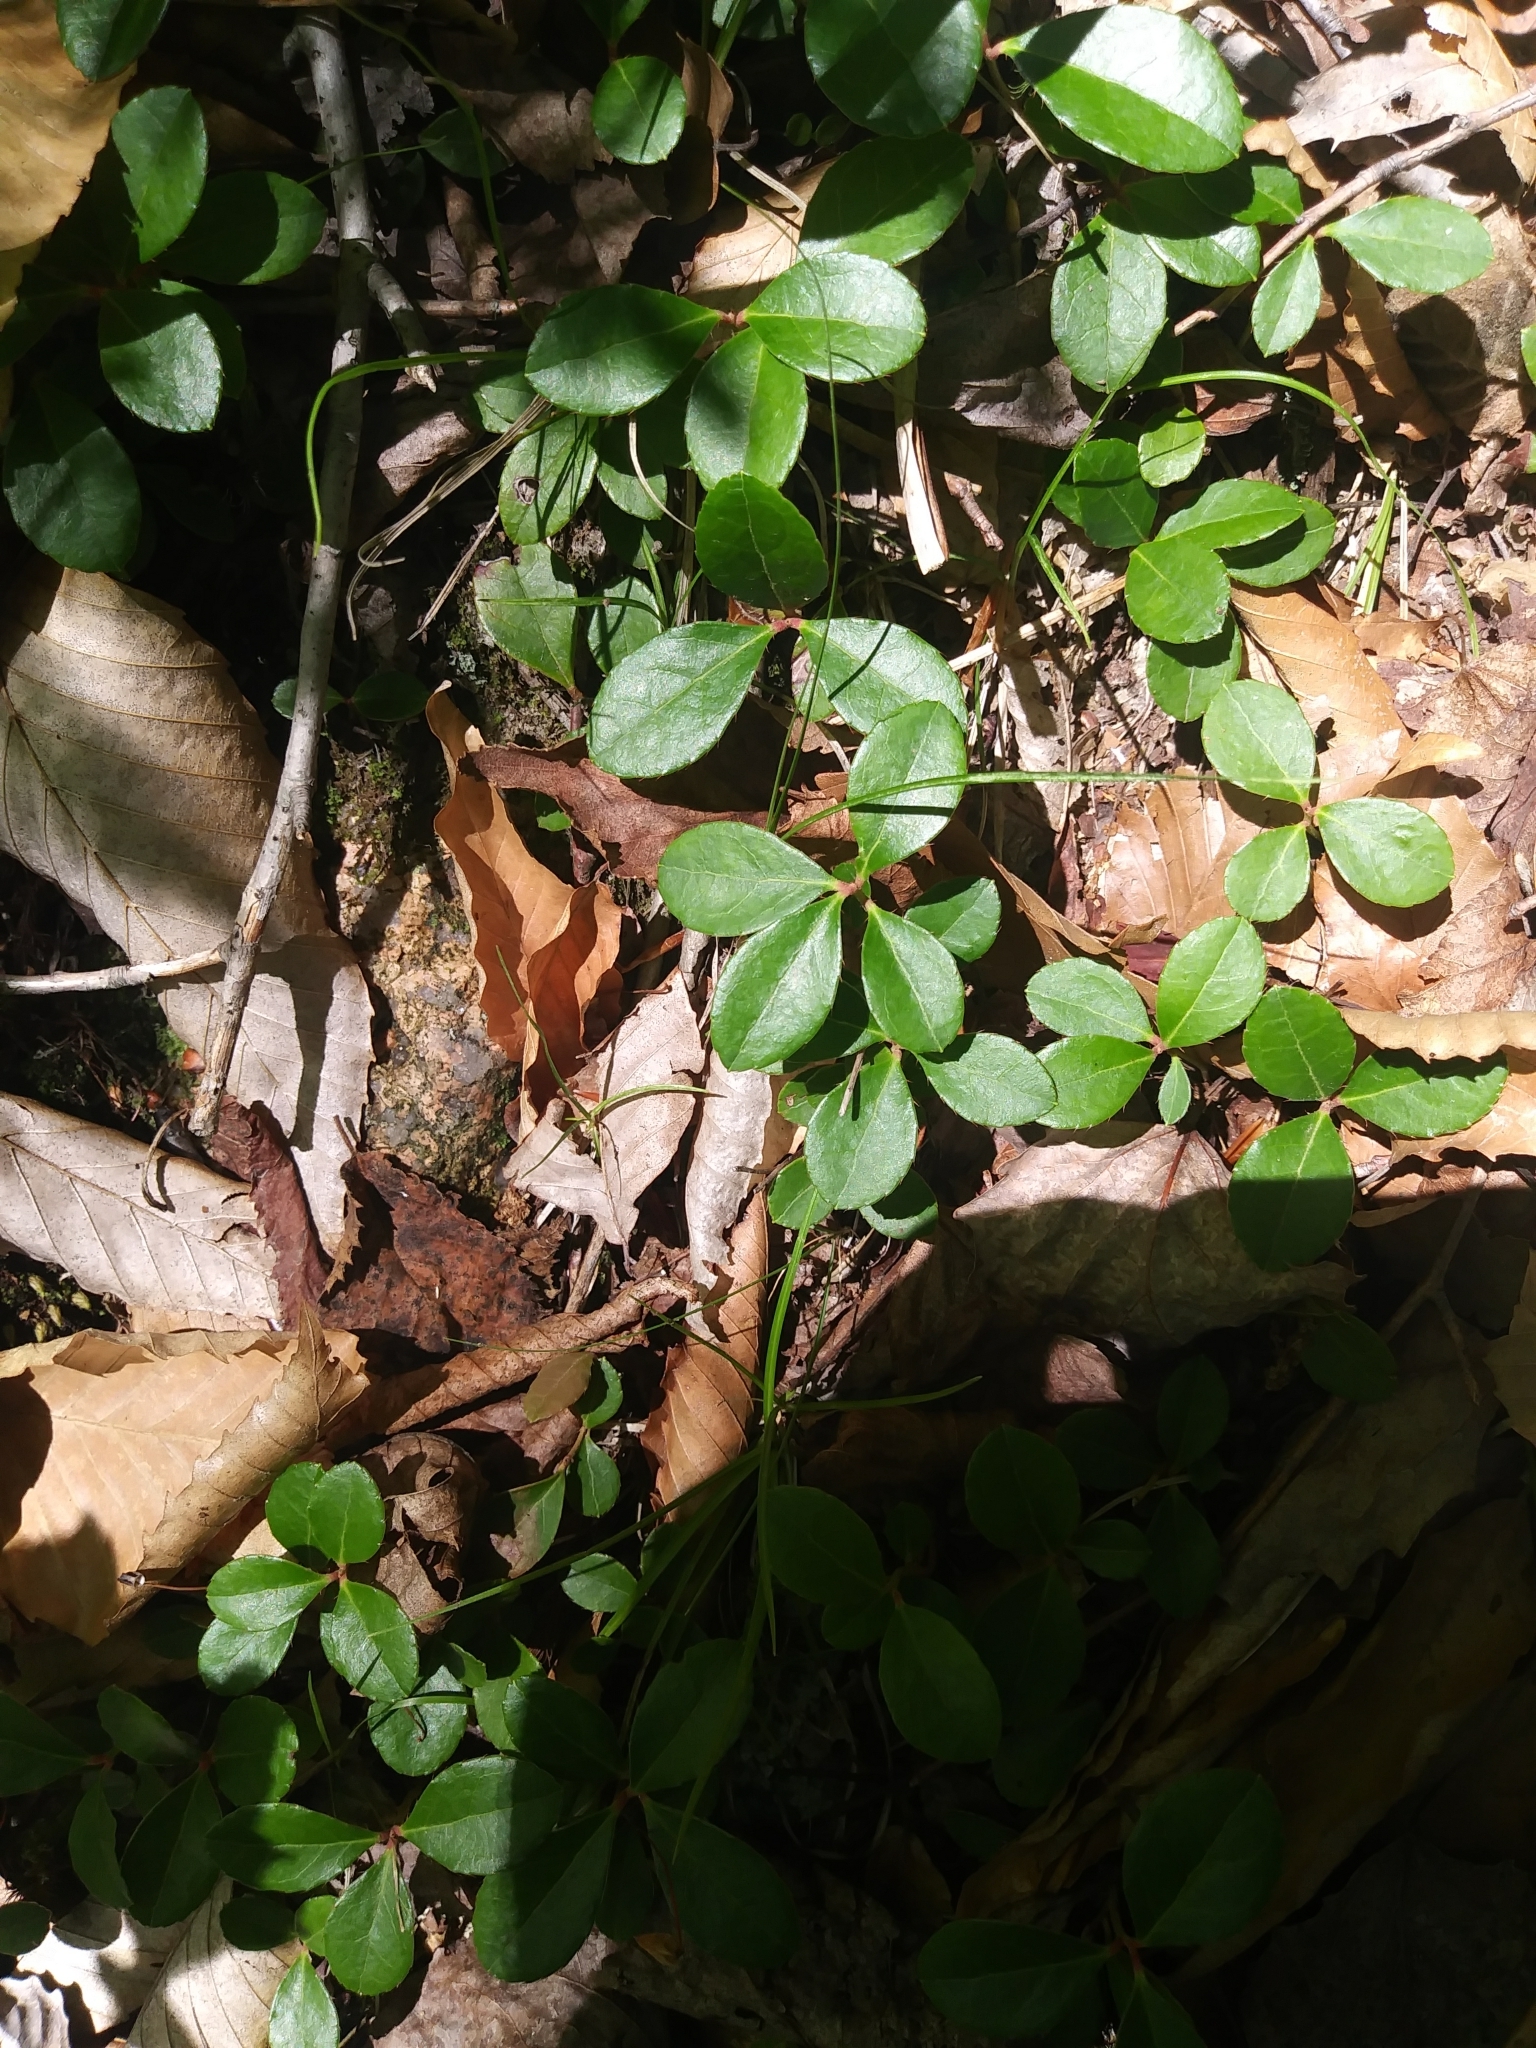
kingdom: Plantae
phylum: Tracheophyta
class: Magnoliopsida
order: Ericales
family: Ericaceae
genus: Gaultheria
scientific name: Gaultheria procumbens
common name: Checkerberry
